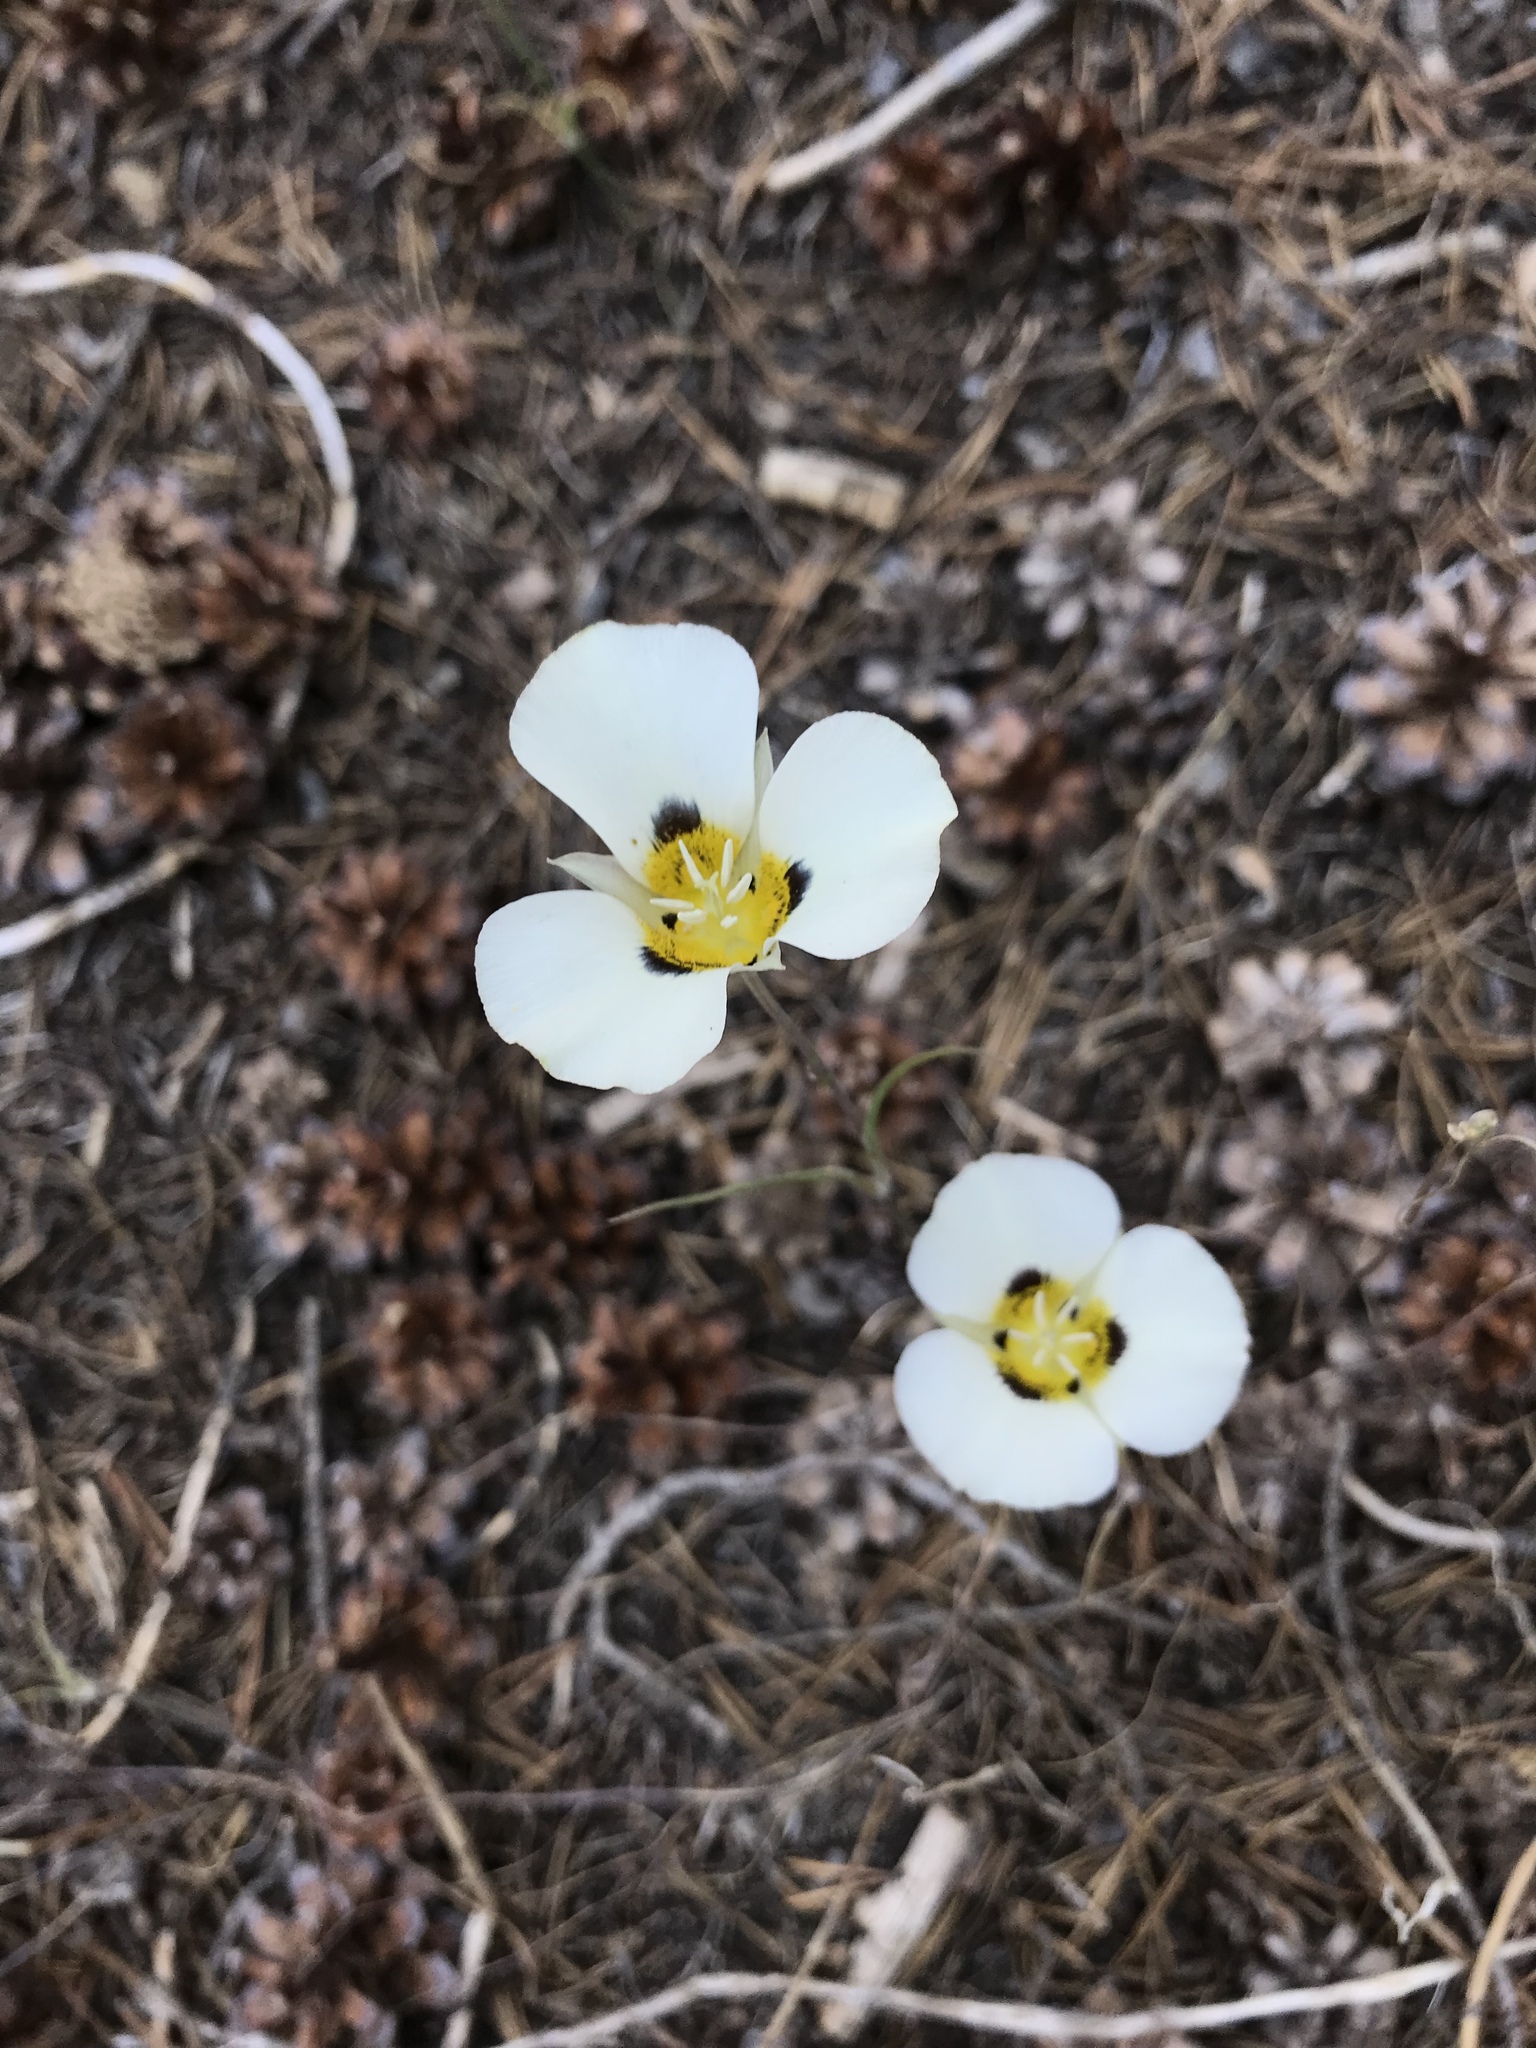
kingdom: Plantae
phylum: Tracheophyta
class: Liliopsida
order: Liliales
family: Liliaceae
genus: Calochortus
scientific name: Calochortus leichtlinii
